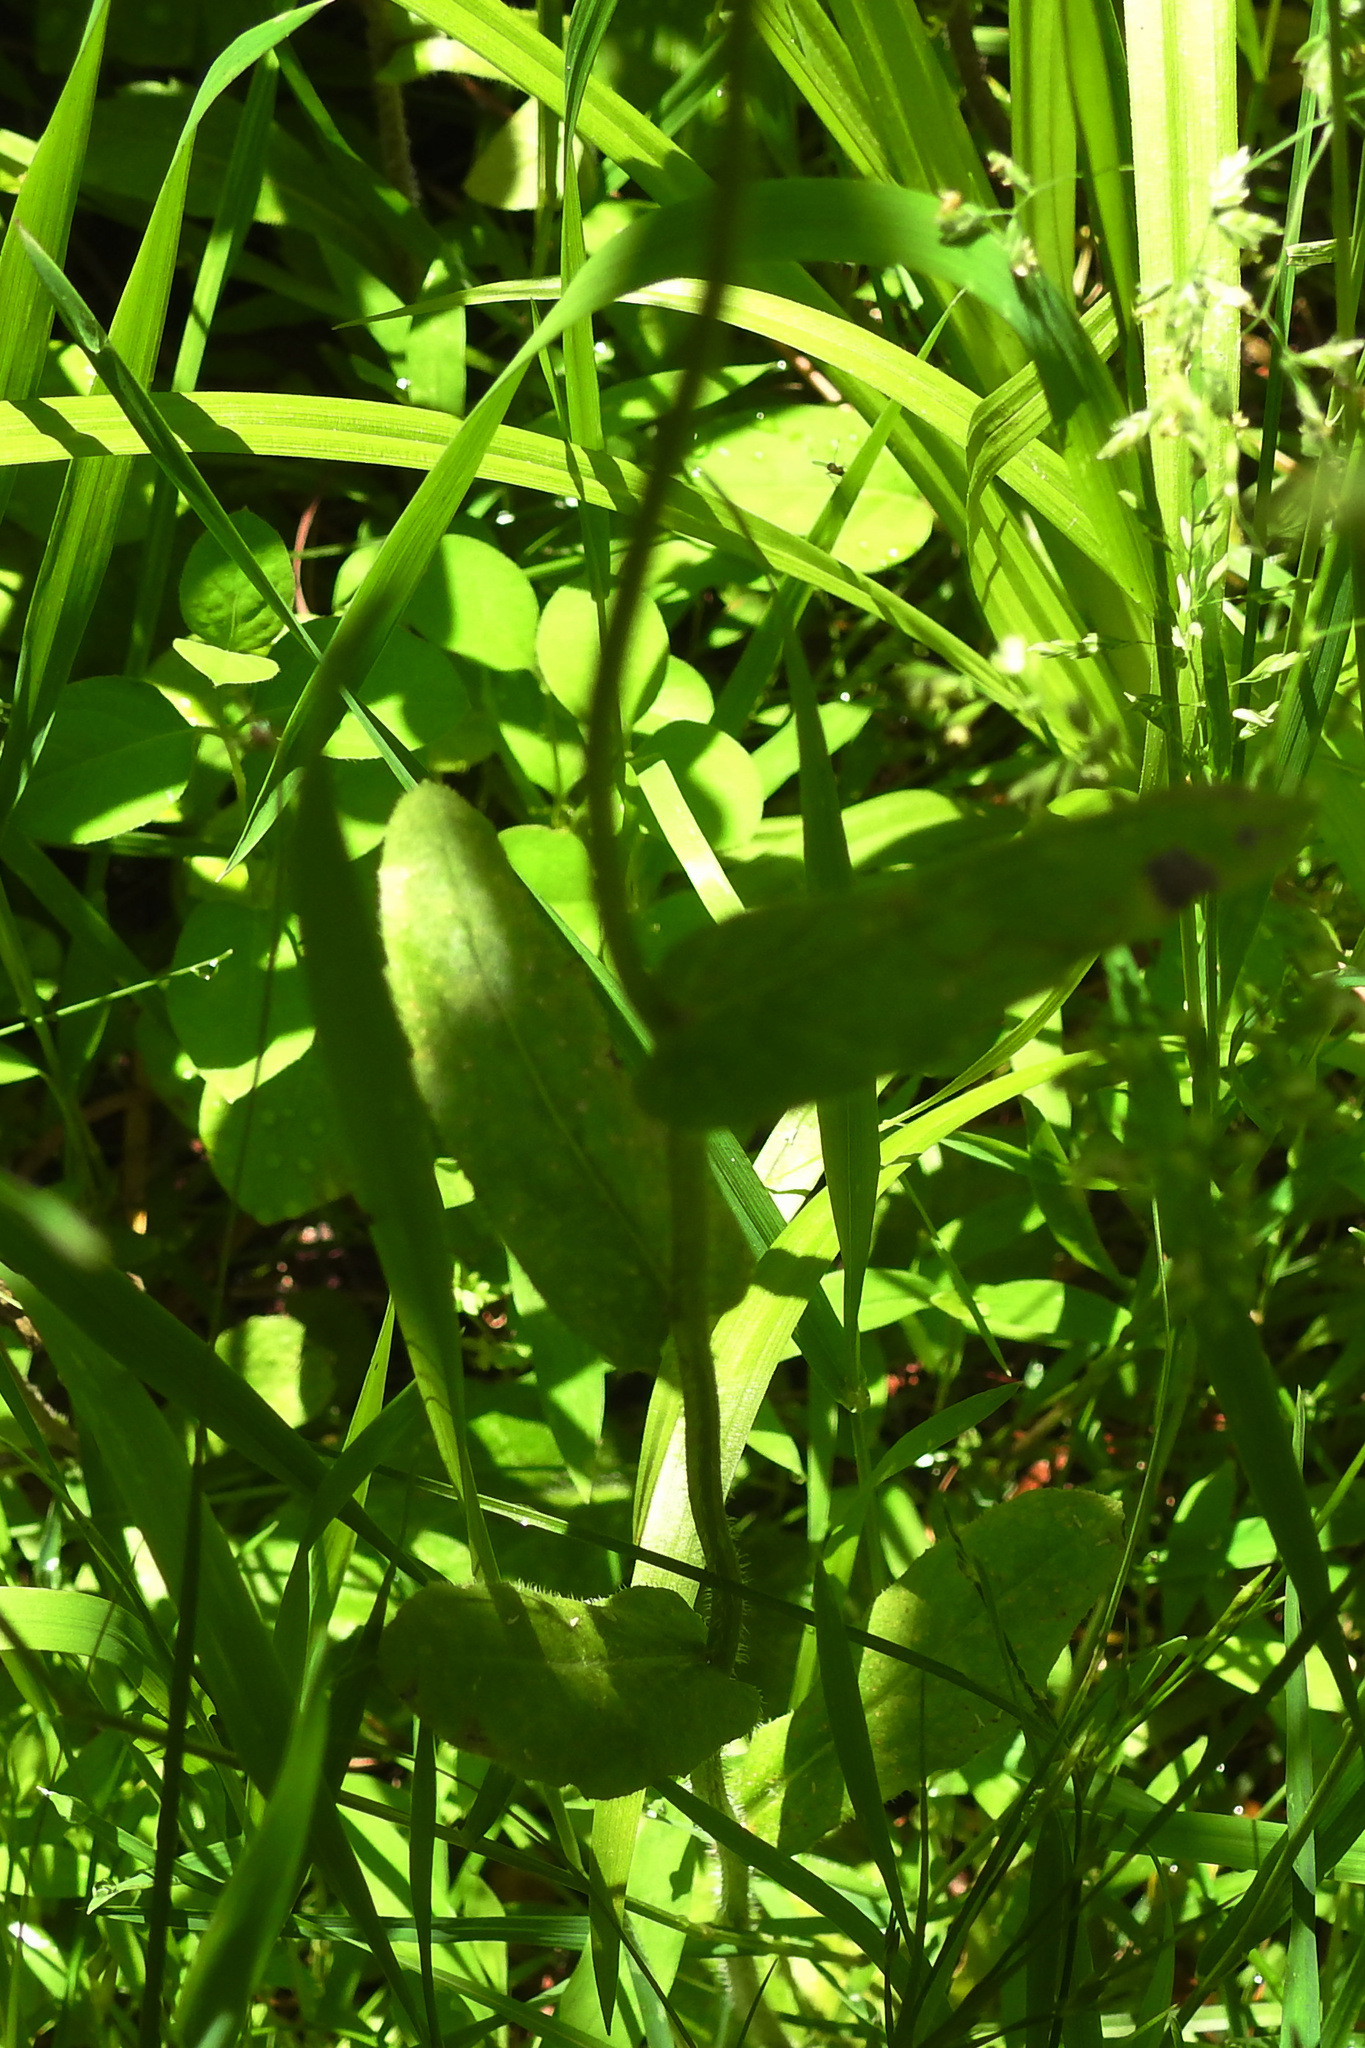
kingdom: Plantae
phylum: Tracheophyta
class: Magnoliopsida
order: Asterales
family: Asteraceae
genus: Erigeron
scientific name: Erigeron philadelphicus
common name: Robin's-plantain
